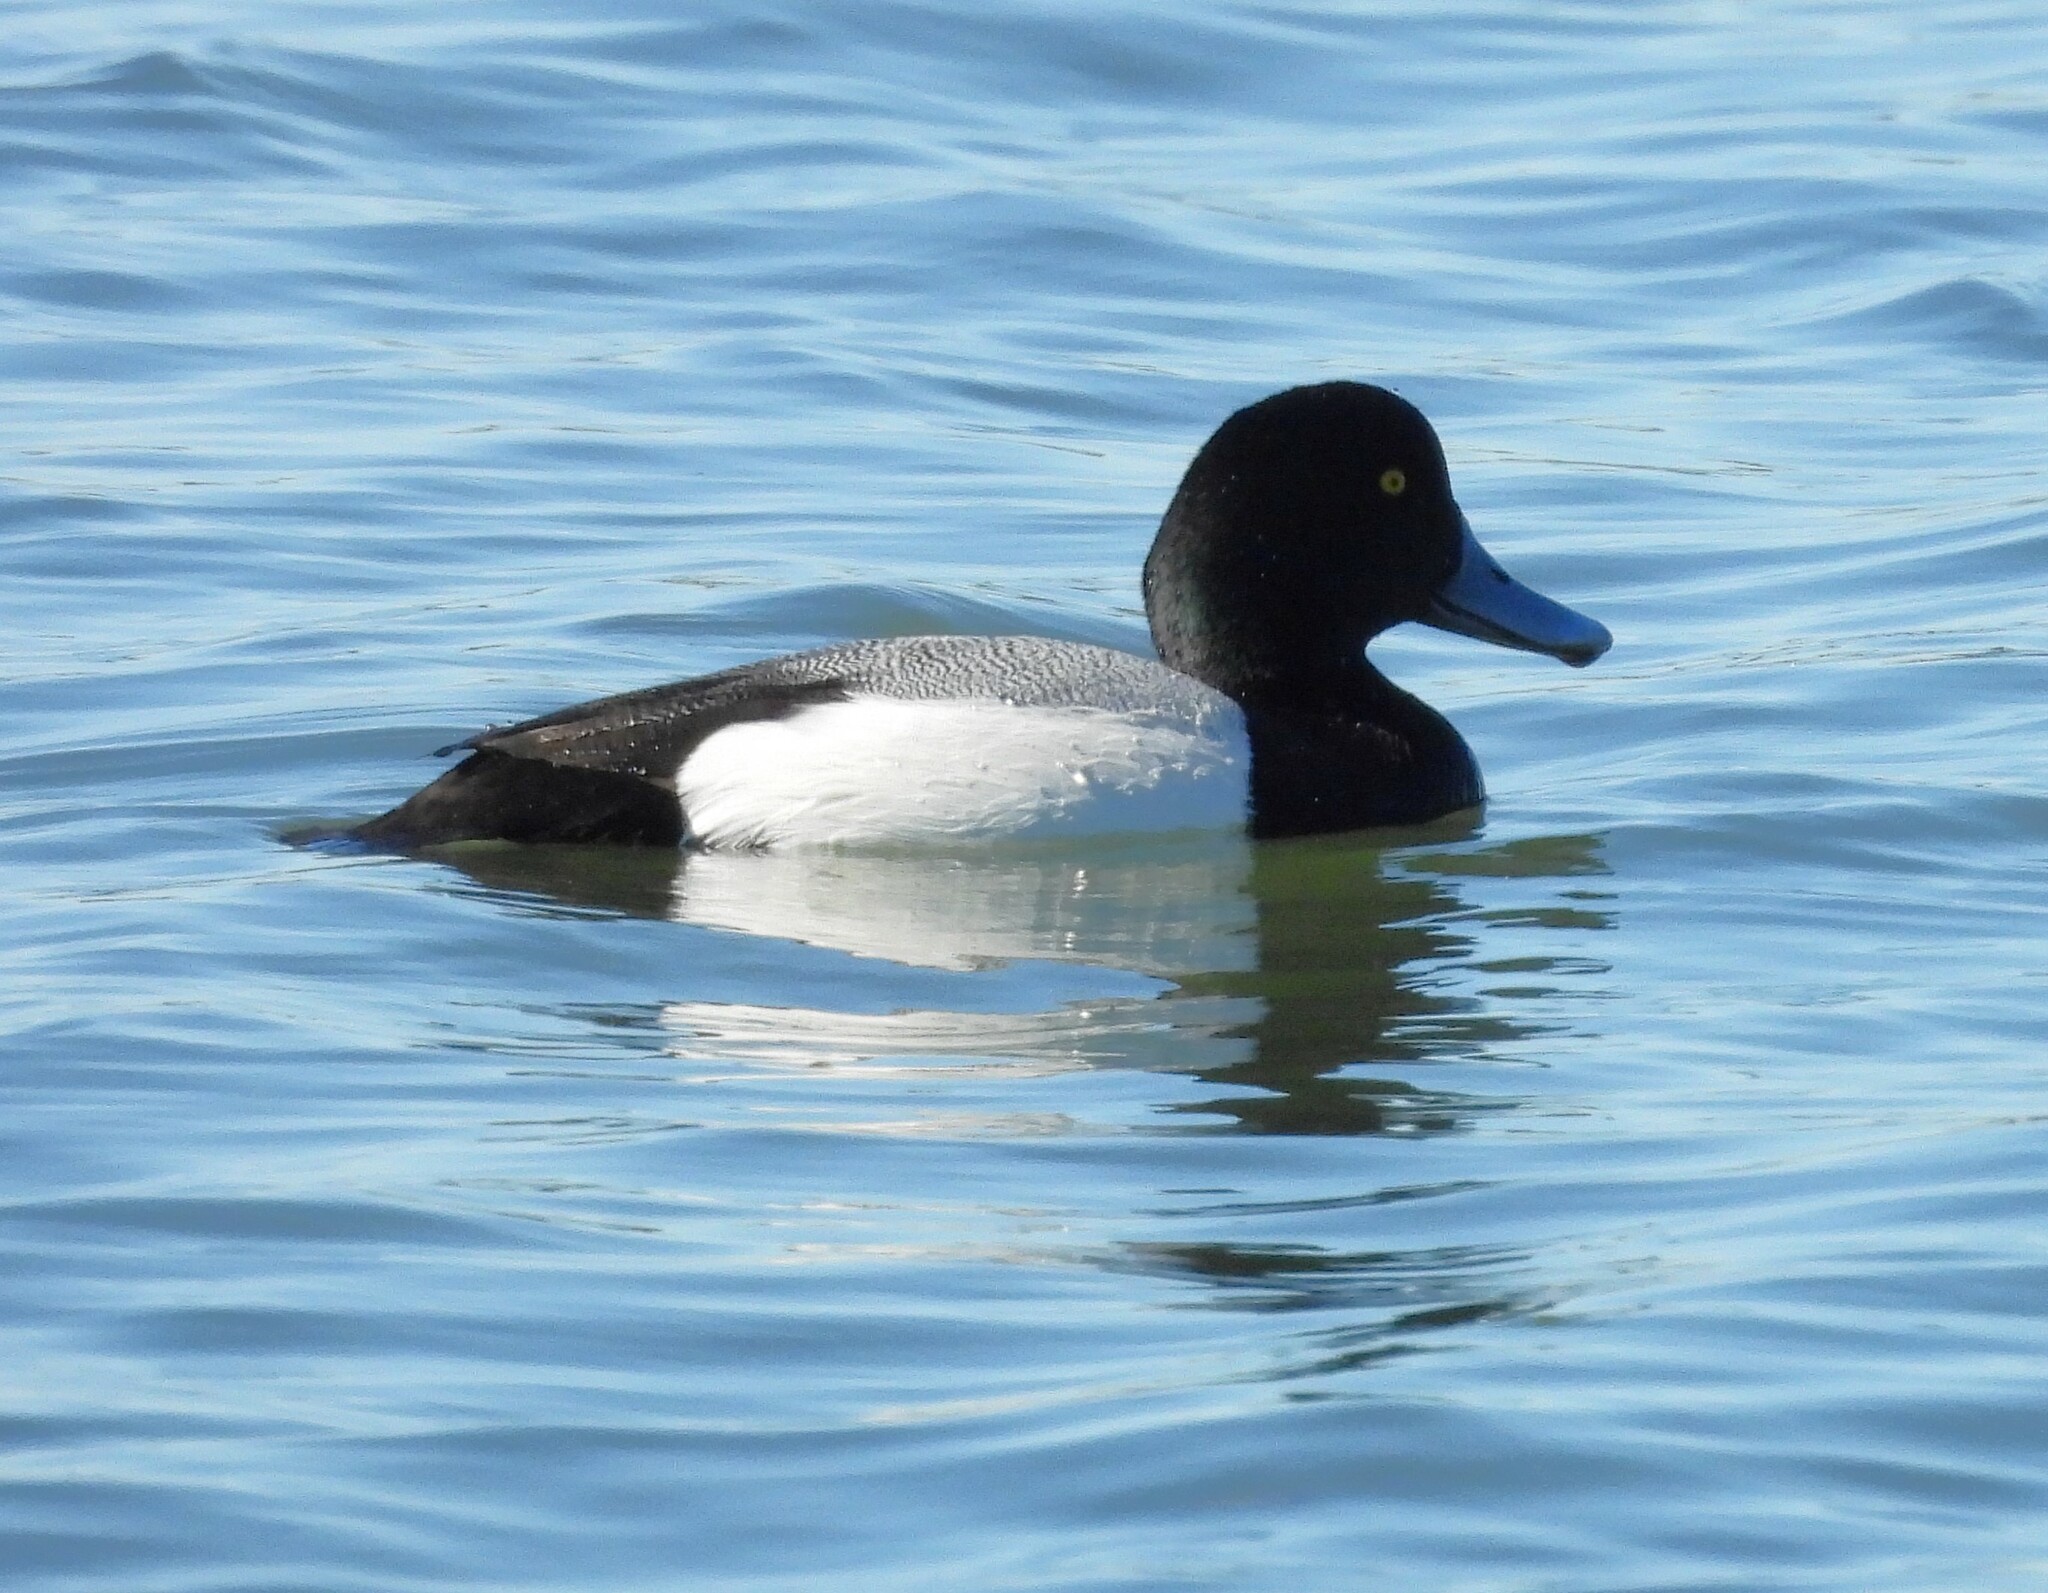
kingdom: Animalia
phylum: Chordata
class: Aves
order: Anseriformes
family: Anatidae
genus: Aythya
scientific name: Aythya marila
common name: Greater scaup
